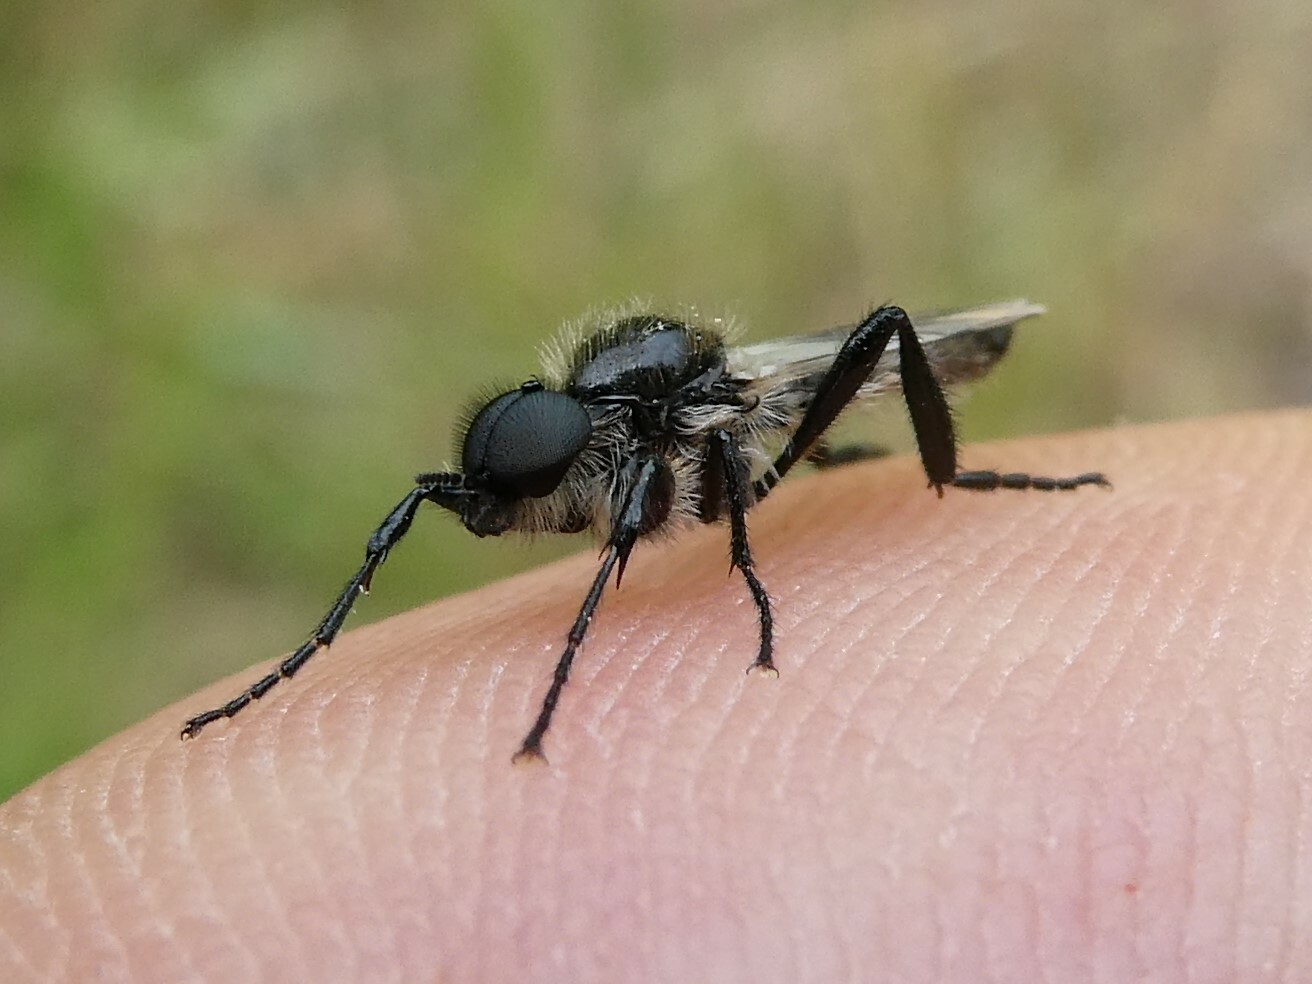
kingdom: Animalia
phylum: Arthropoda
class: Insecta
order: Diptera
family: Bibionidae
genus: Bibio
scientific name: Bibio albipennis
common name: White-winged march fly
